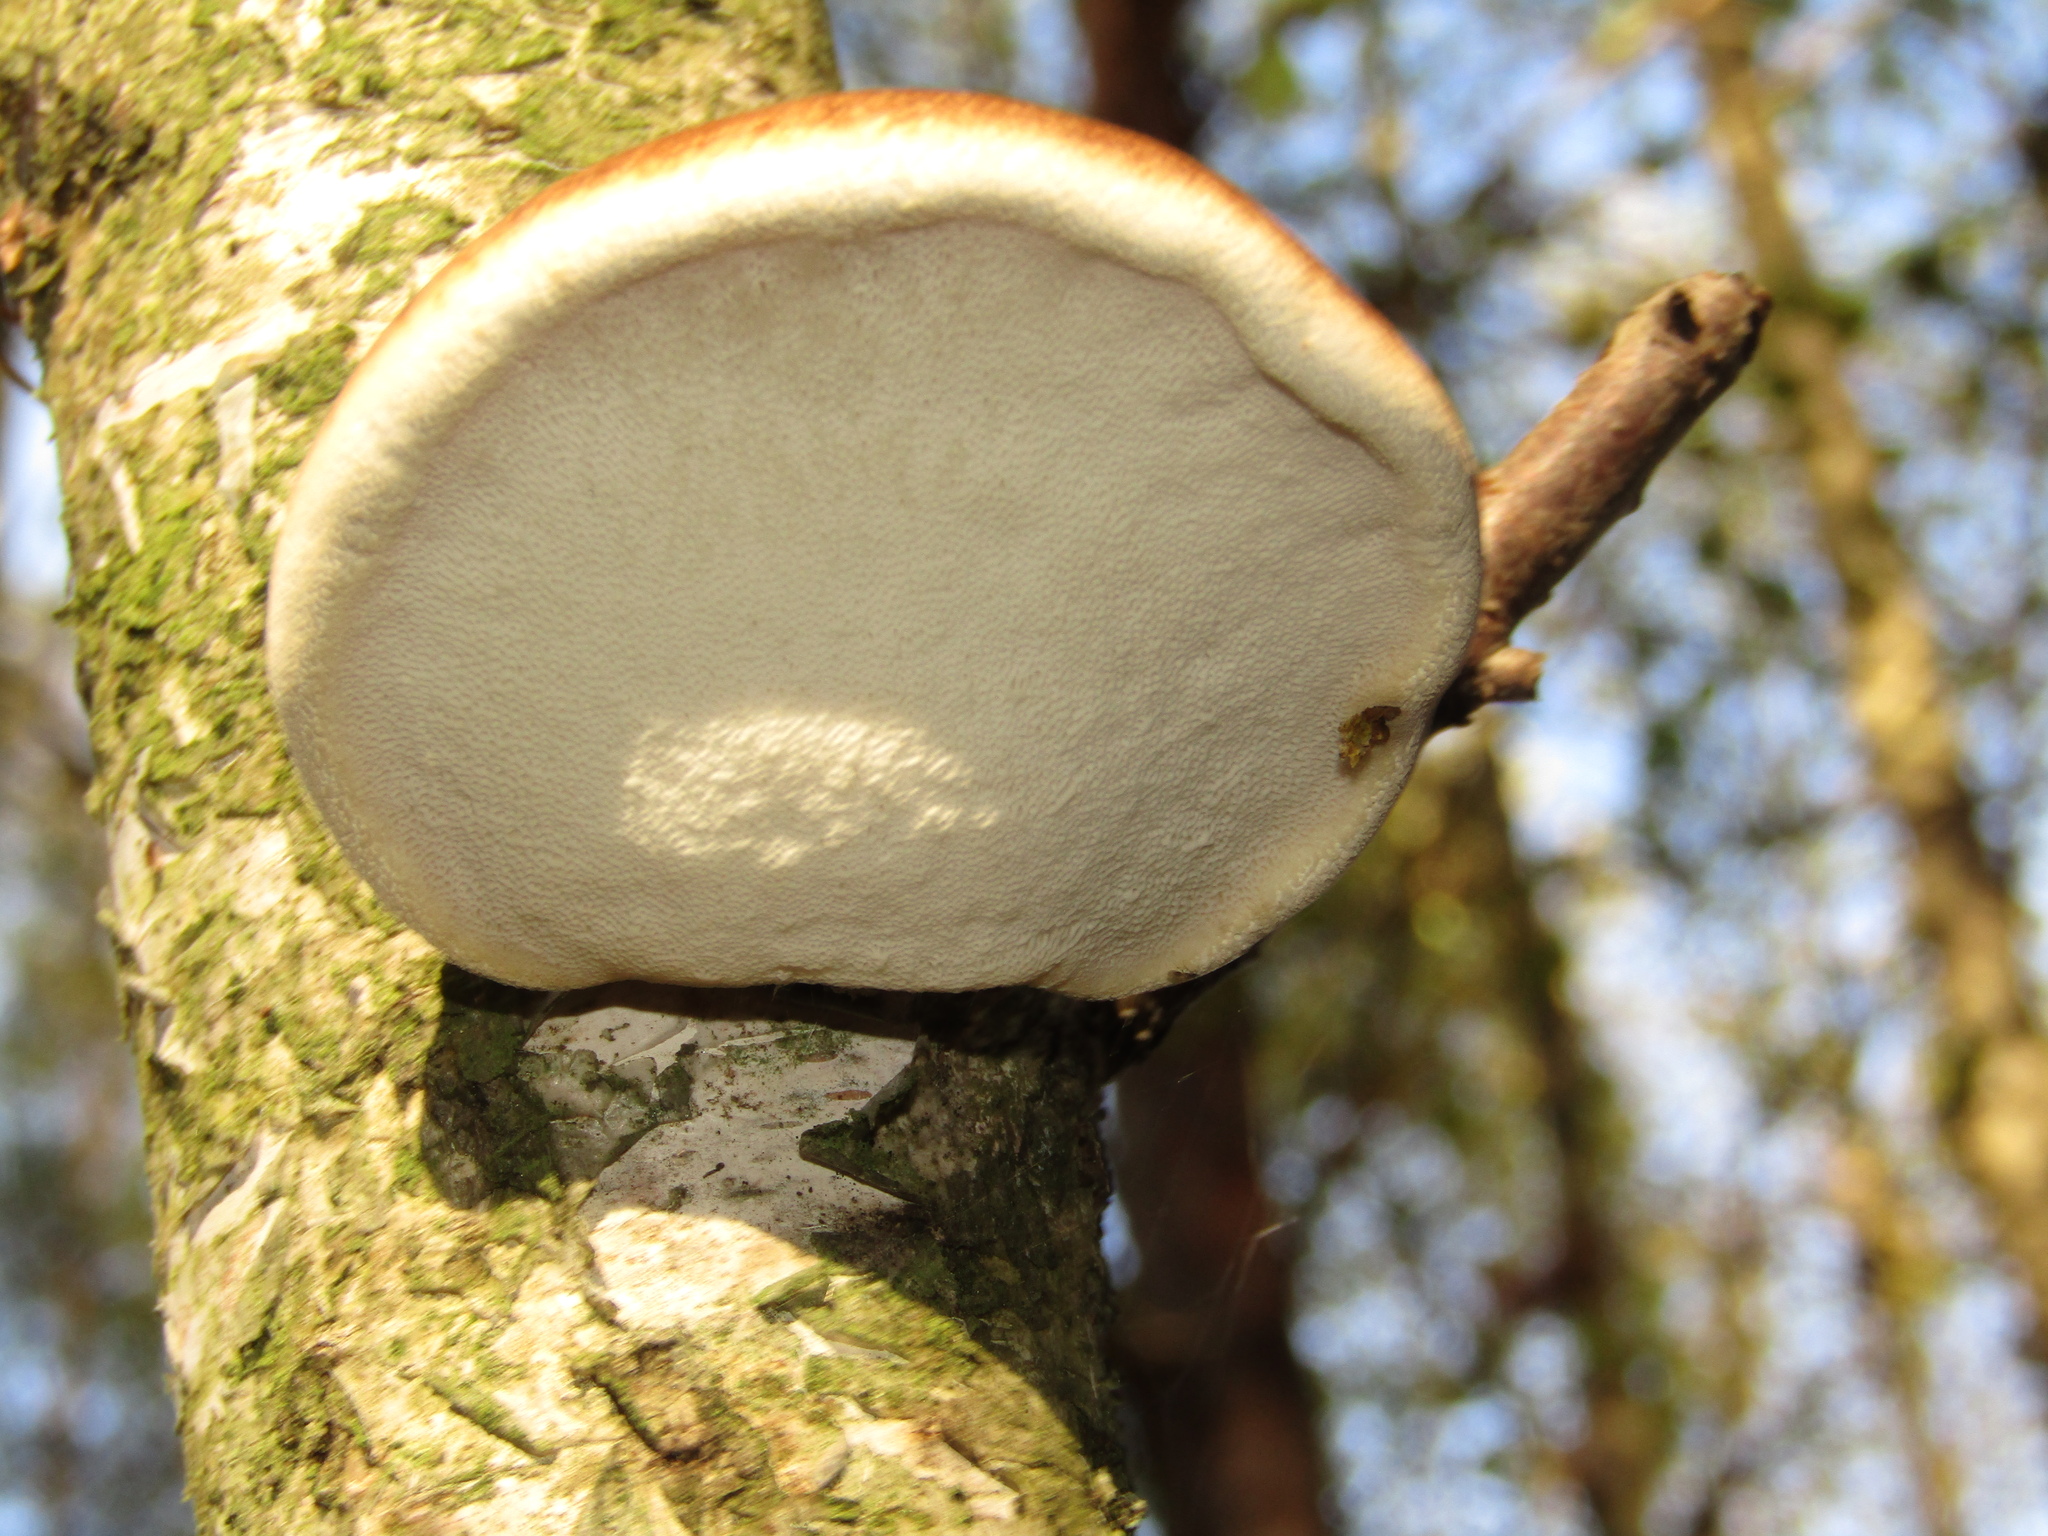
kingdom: Fungi
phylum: Basidiomycota
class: Agaricomycetes
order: Polyporales
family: Fomitopsidaceae
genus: Fomitopsis
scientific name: Fomitopsis betulina
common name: Birch polypore
